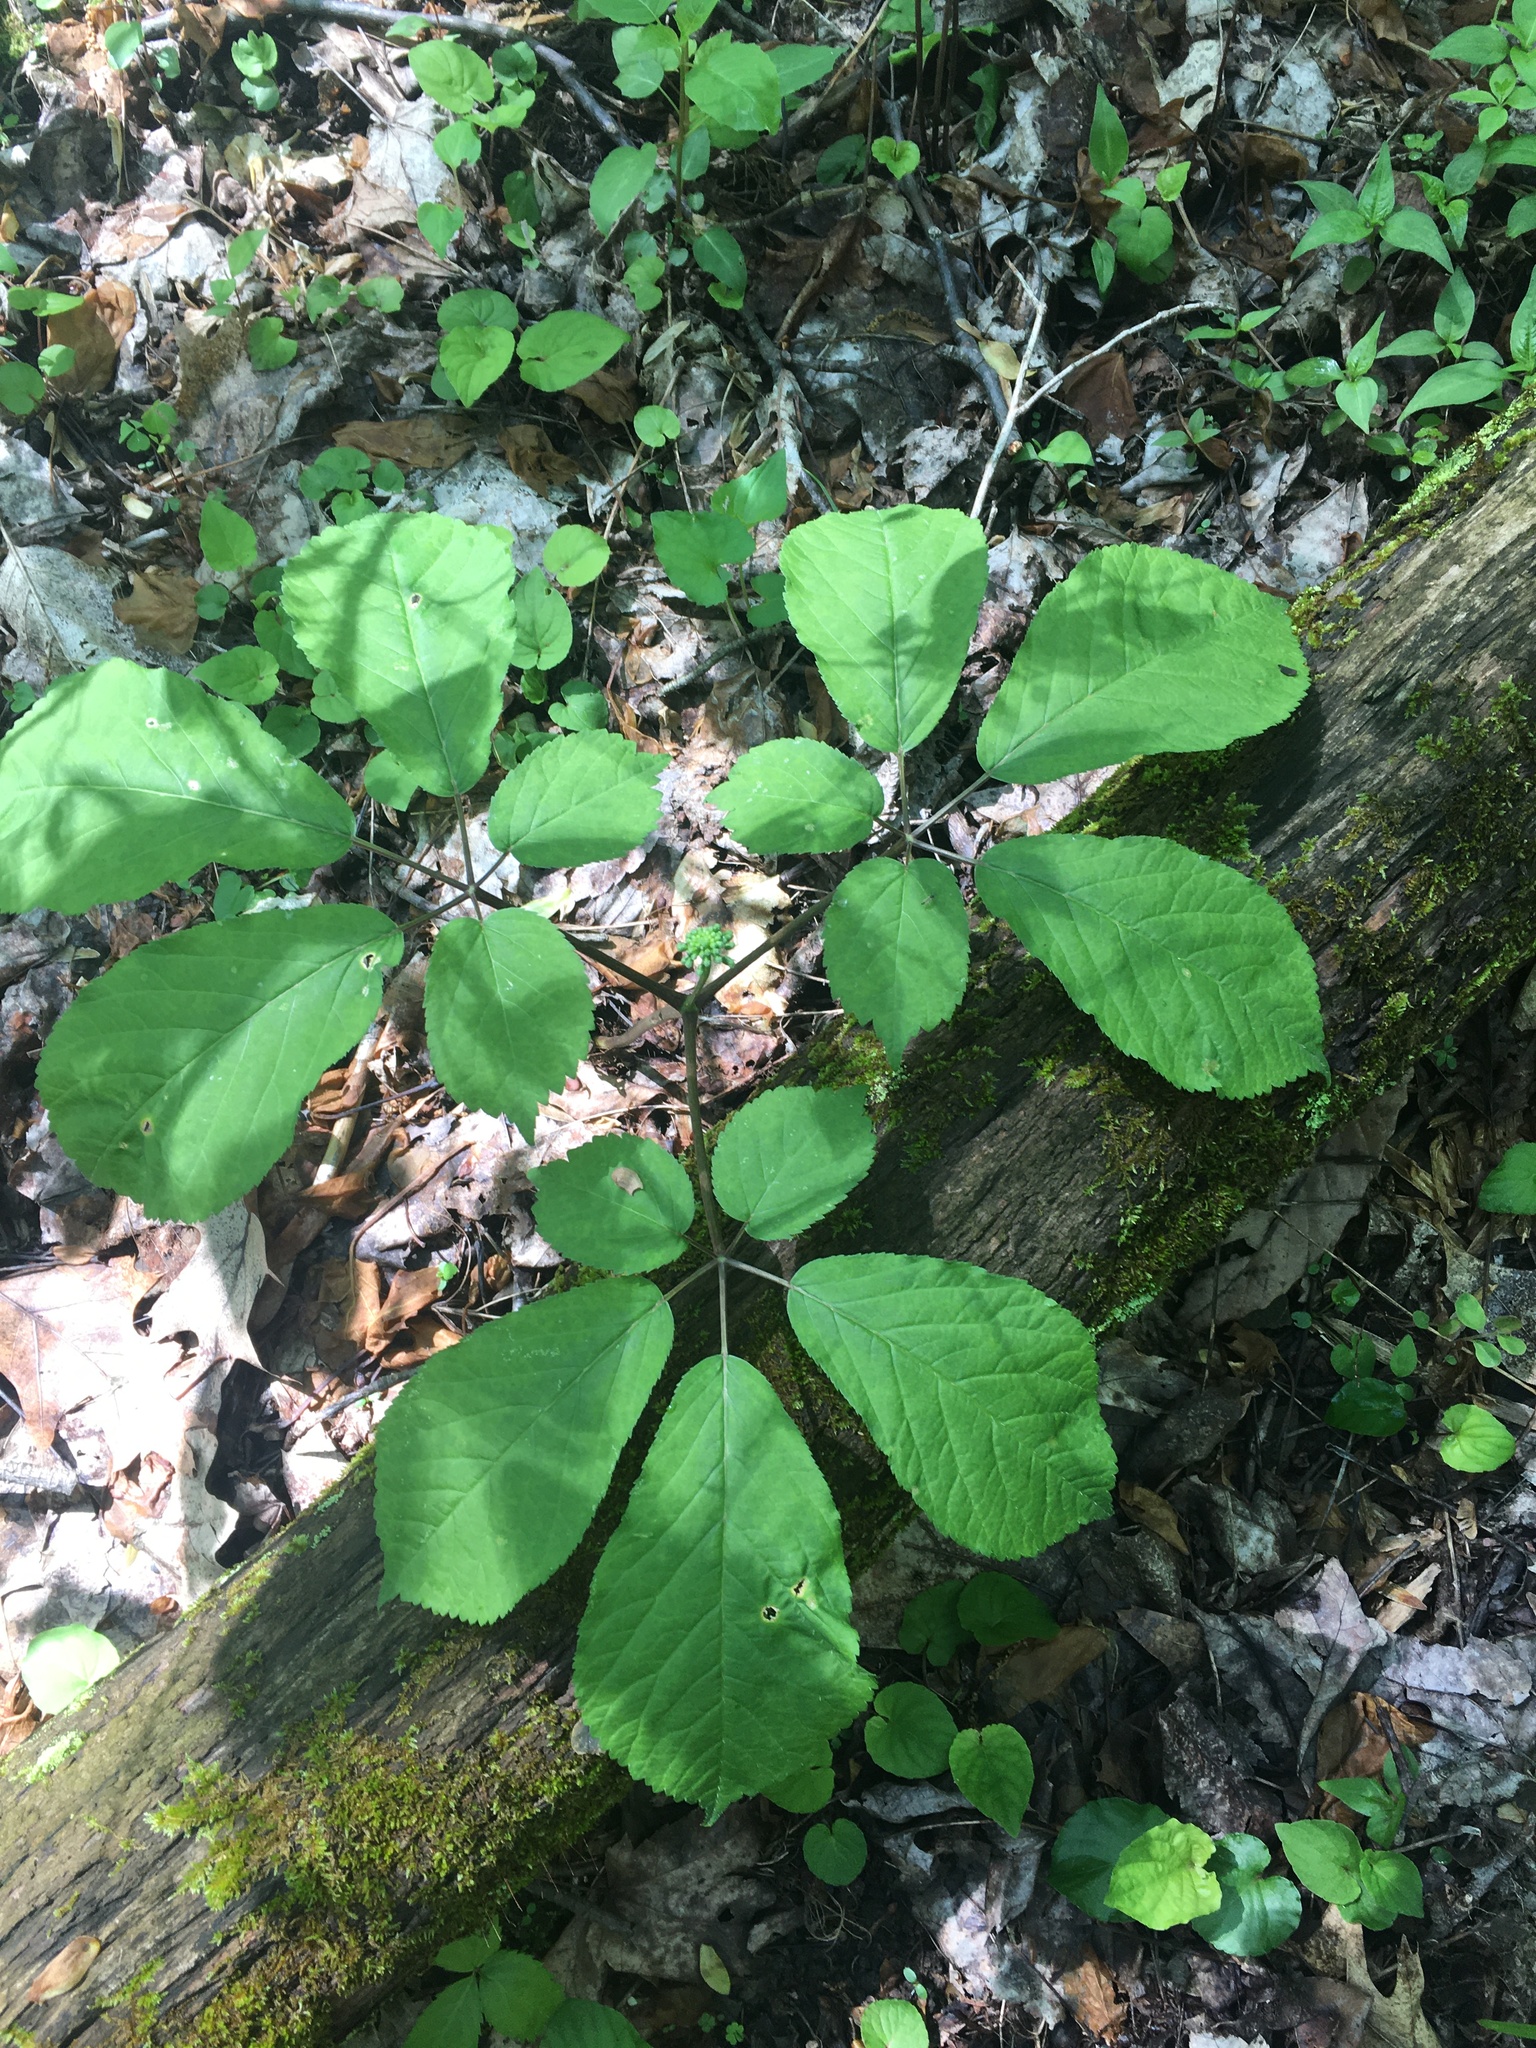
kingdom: Plantae
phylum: Tracheophyta
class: Magnoliopsida
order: Apiales
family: Araliaceae
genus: Panax
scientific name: Panax quinquefolius
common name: American ginseng
